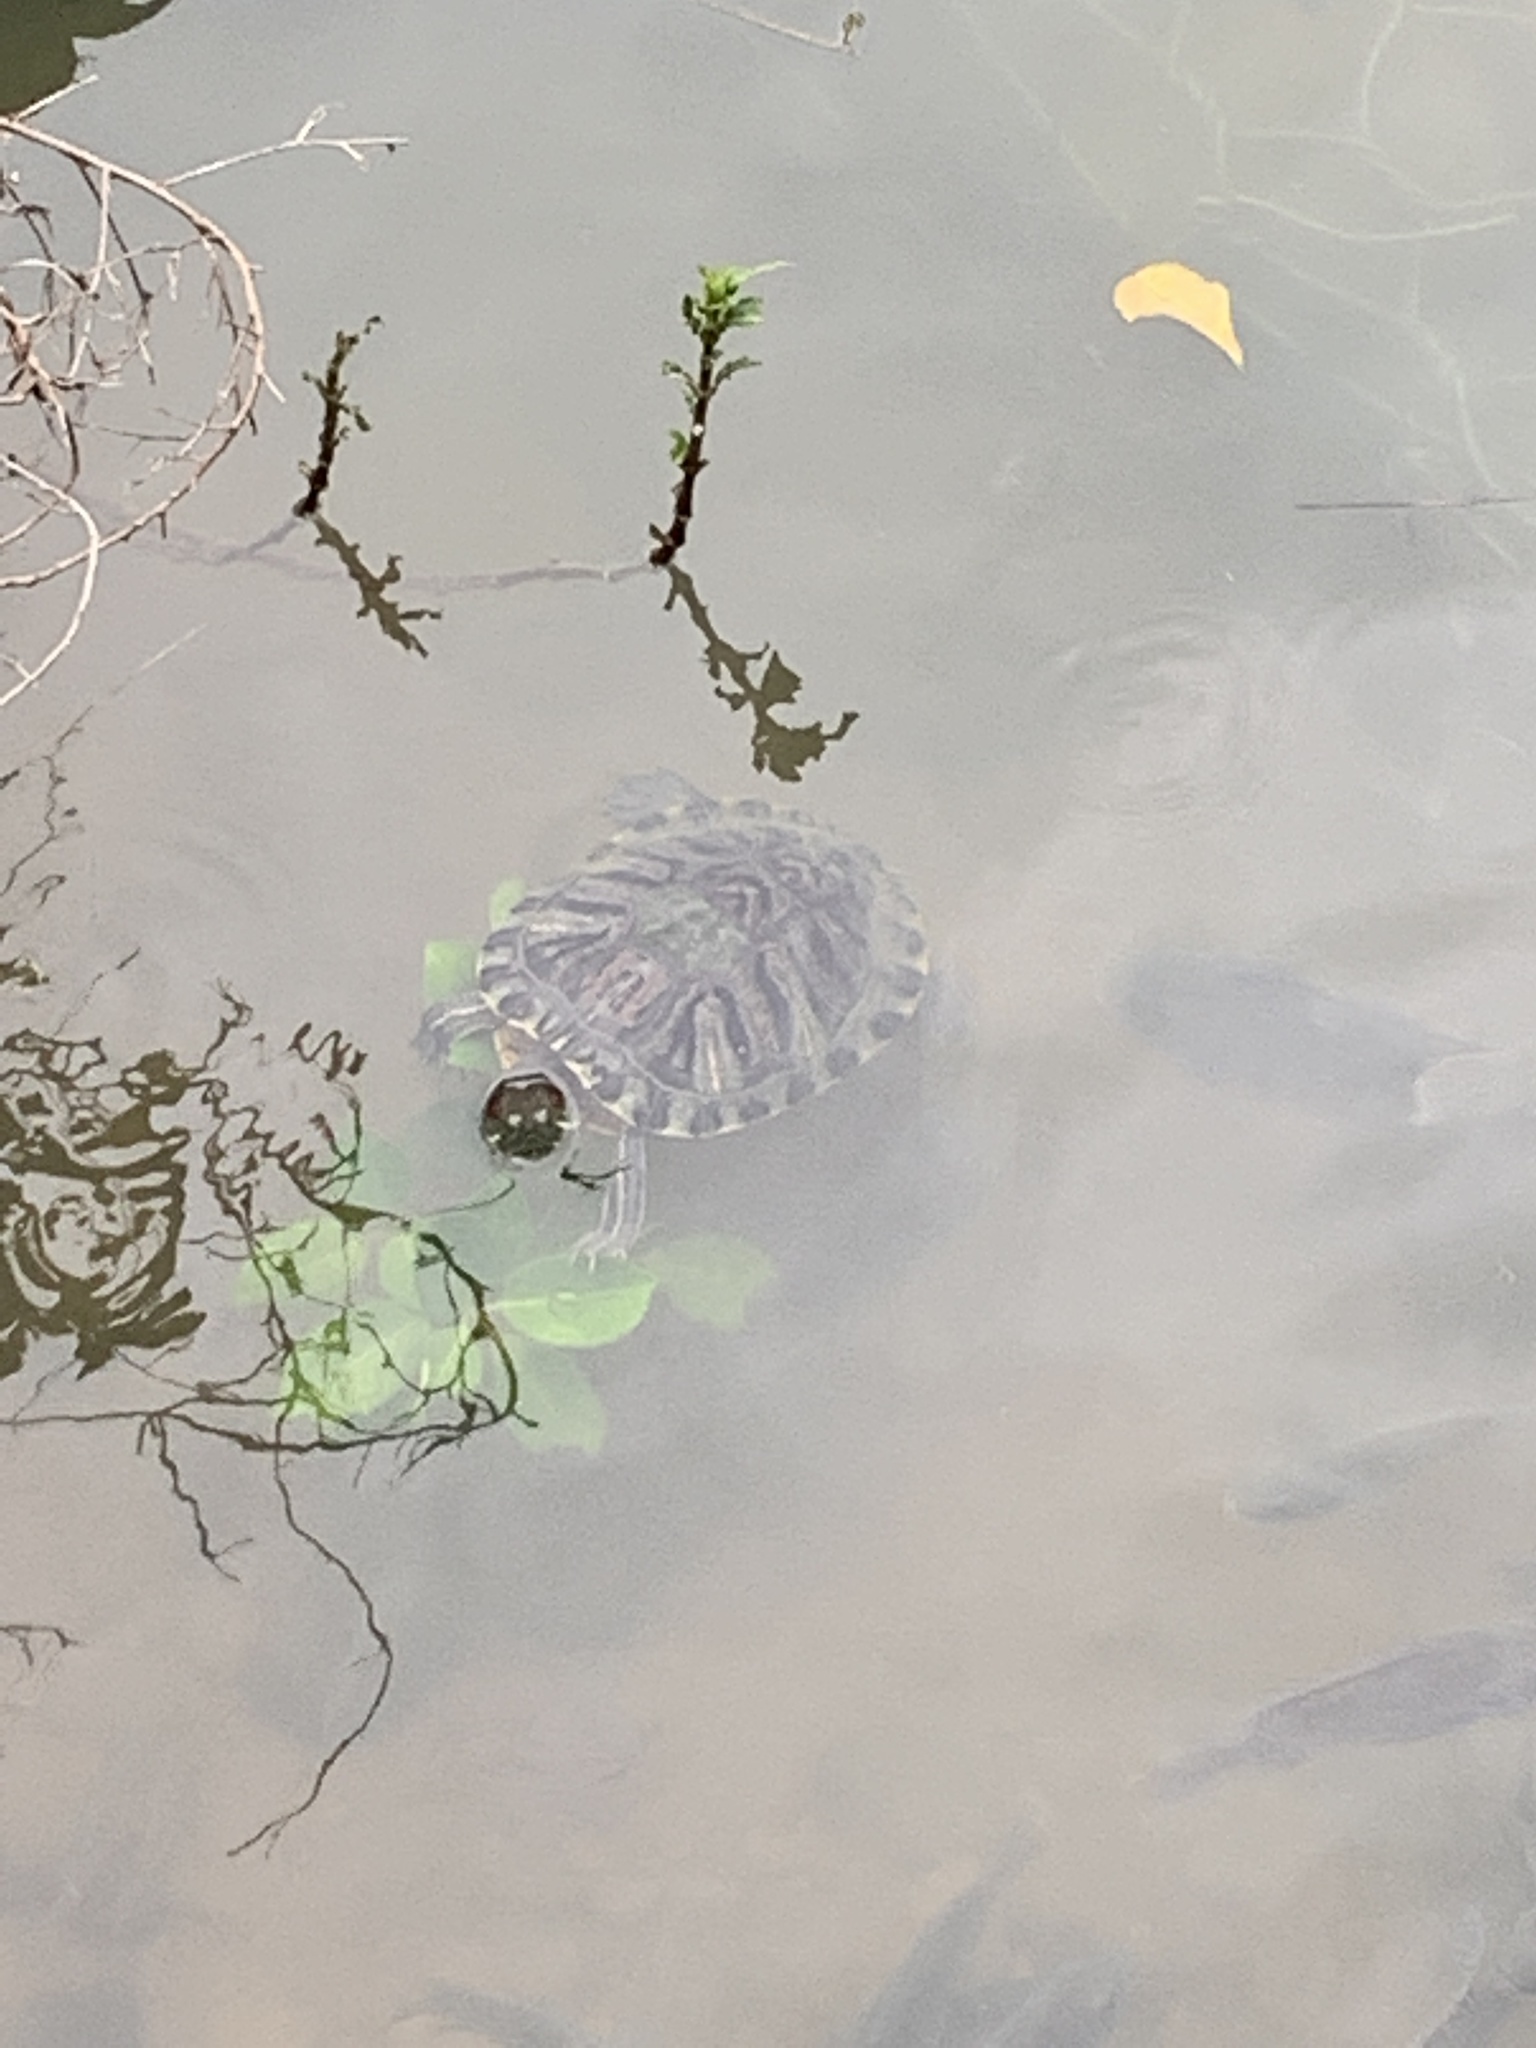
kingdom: Animalia
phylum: Chordata
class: Testudines
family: Emydidae
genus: Trachemys
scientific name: Trachemys scripta
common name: Slider
